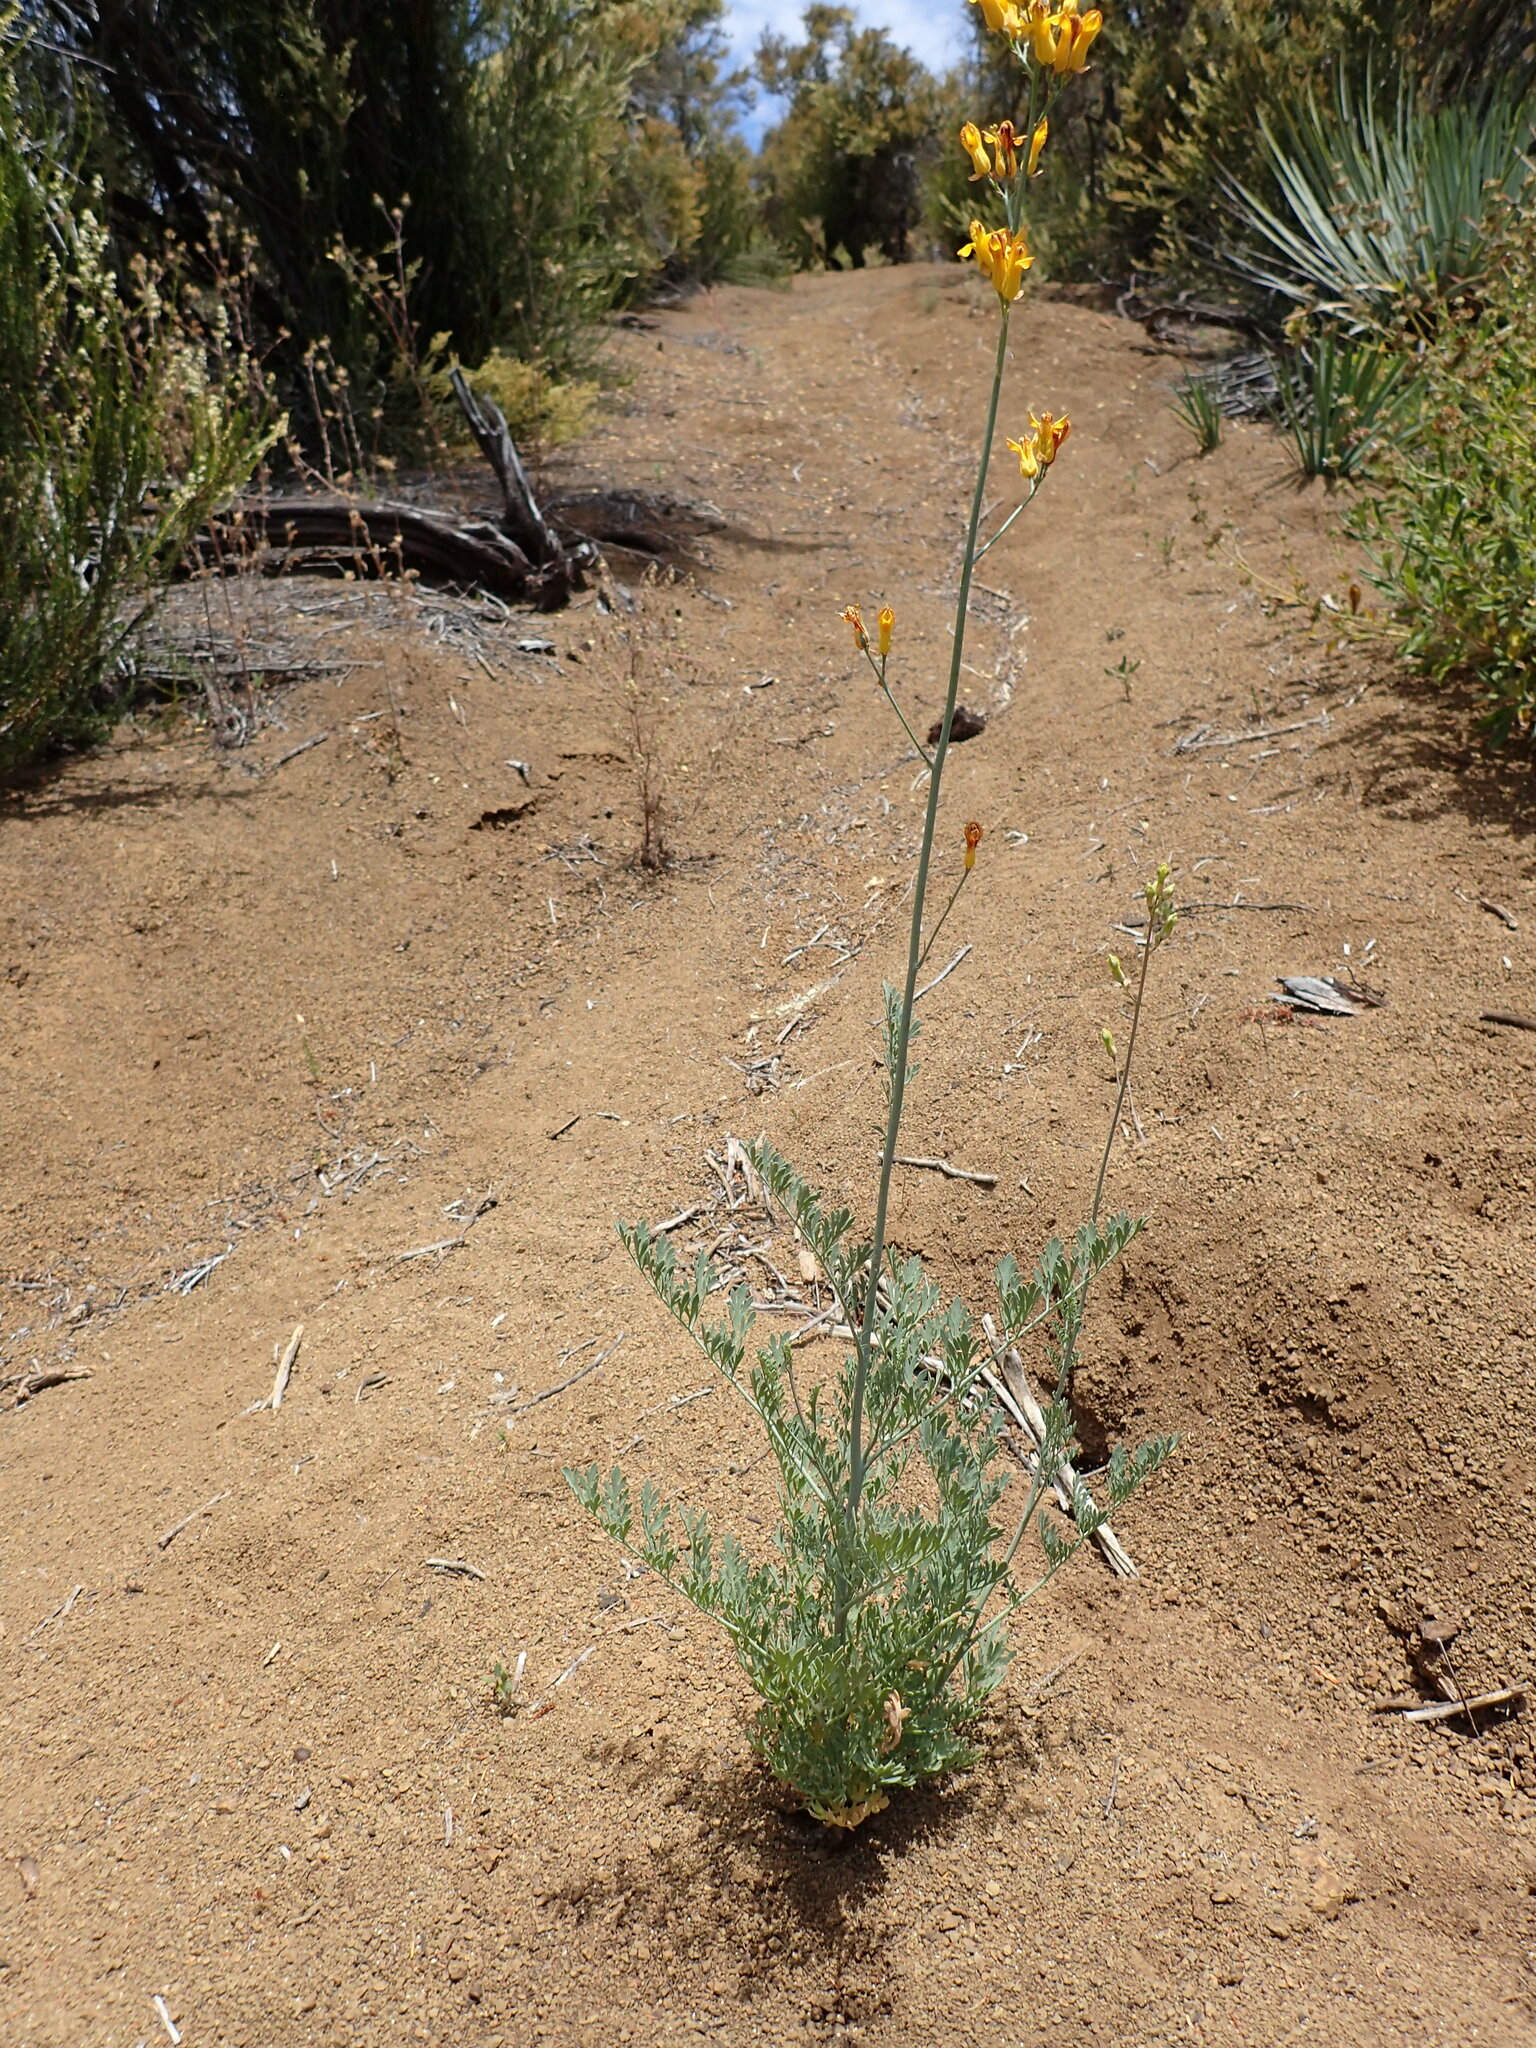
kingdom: Plantae
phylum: Tracheophyta
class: Magnoliopsida
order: Ranunculales
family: Papaveraceae
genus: Ehrendorferia
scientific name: Ehrendorferia chrysantha
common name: Golden eardrops
